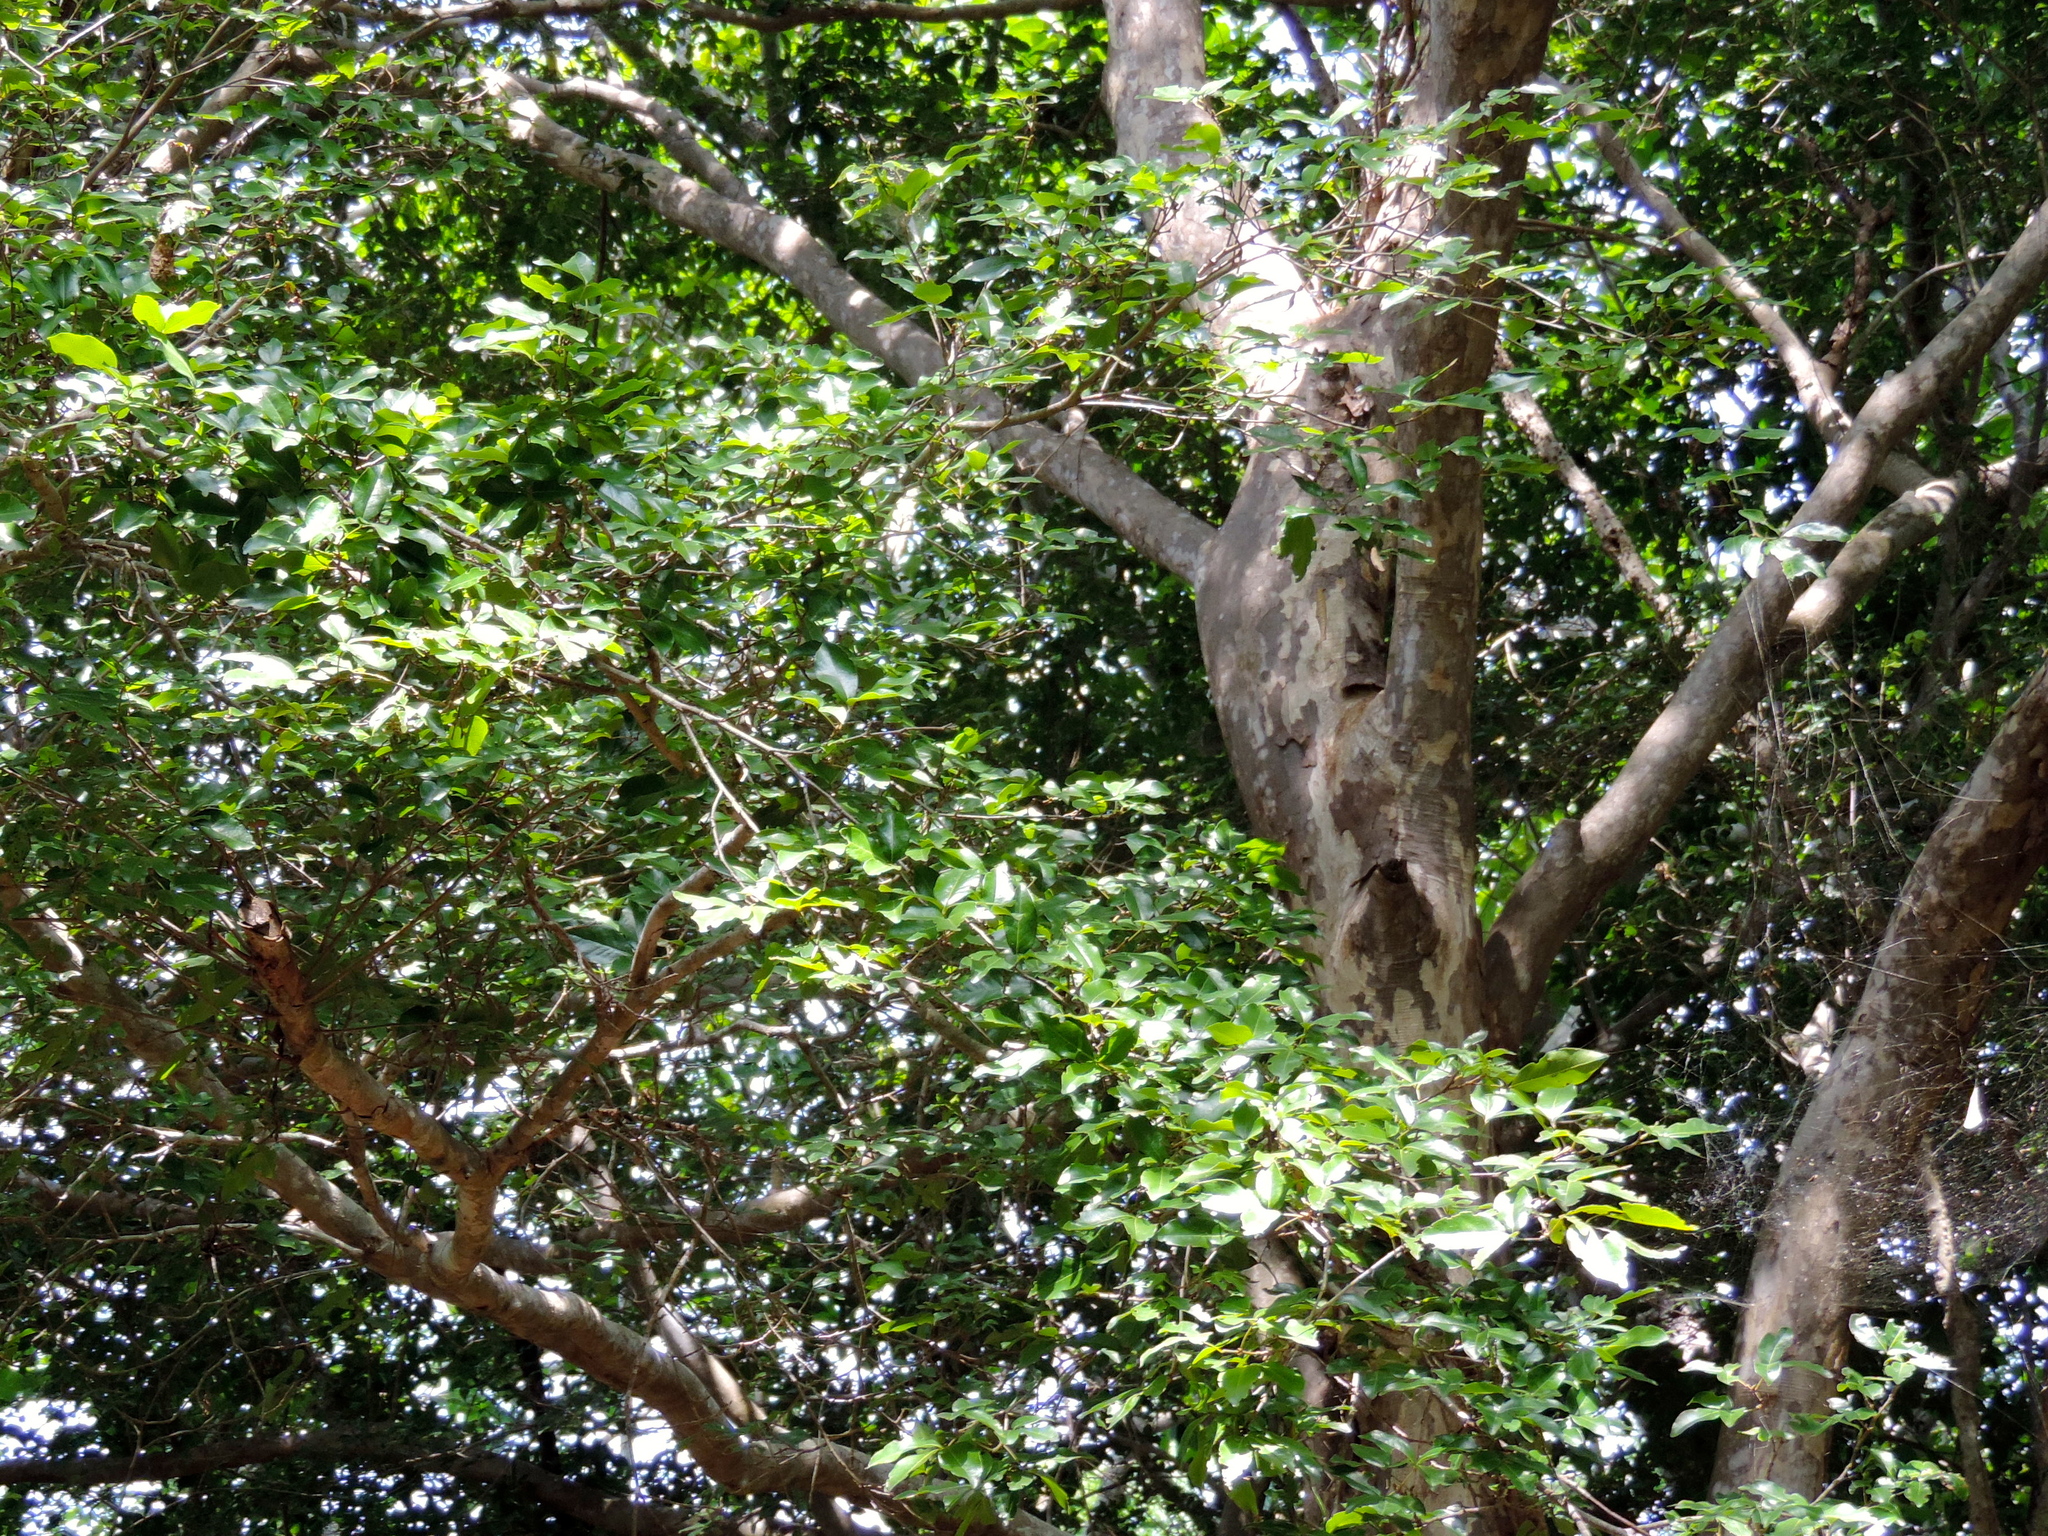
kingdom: Plantae
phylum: Tracheophyta
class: Magnoliopsida
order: Malpighiales
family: Picrodendraceae
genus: Piranhea
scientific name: Piranhea mexicana
